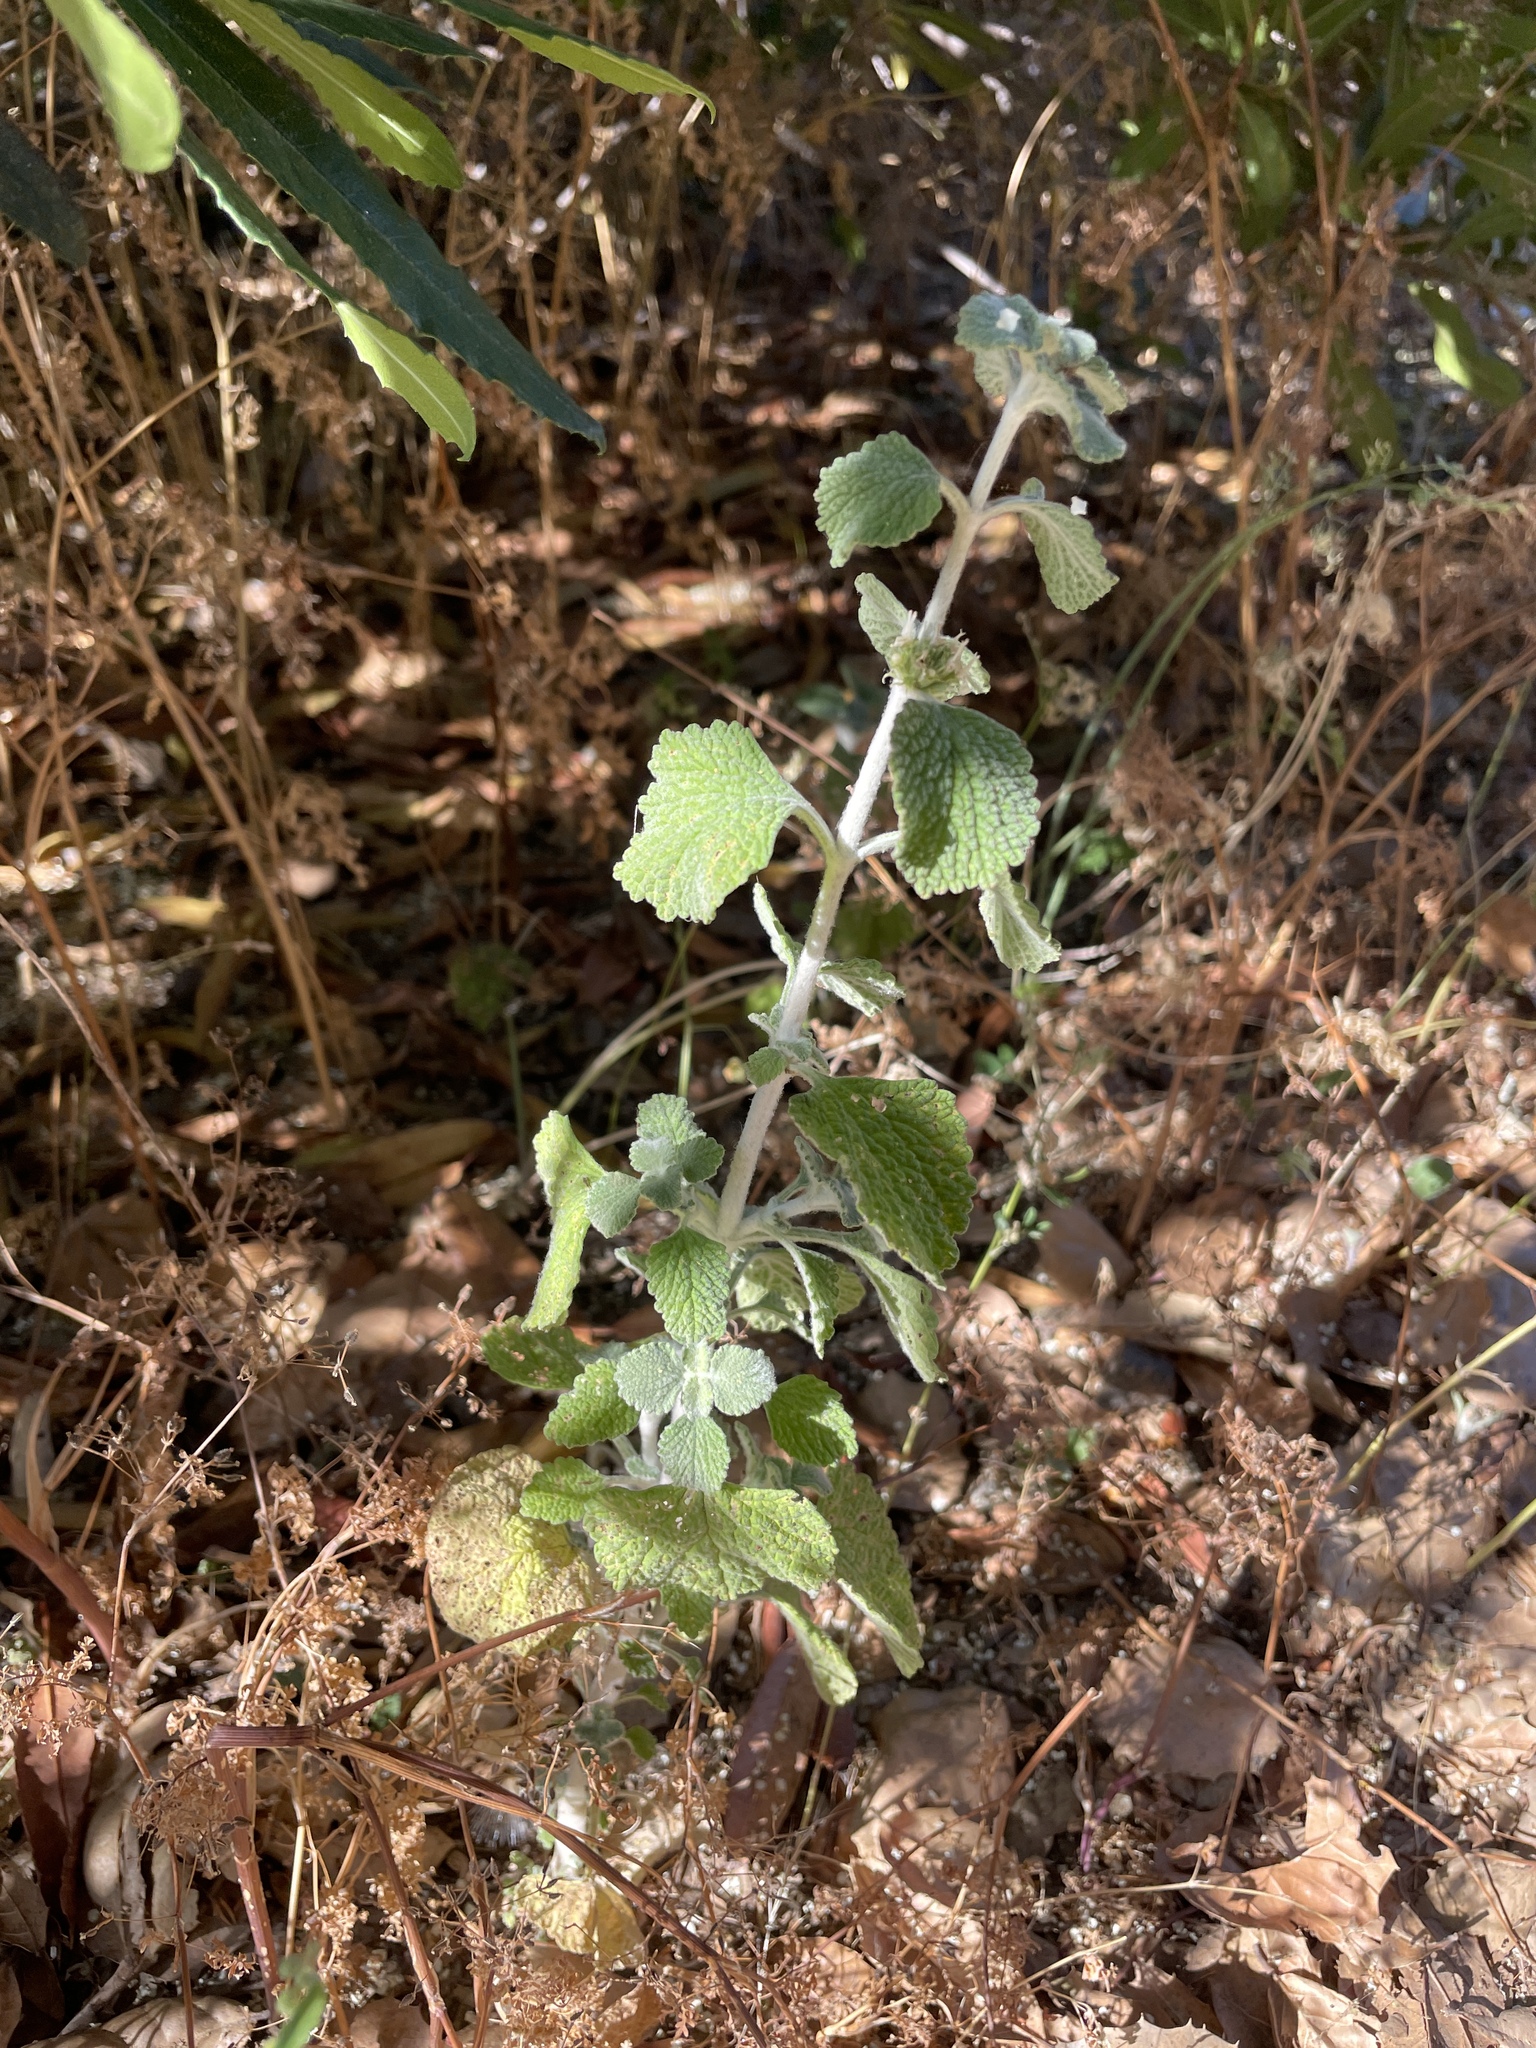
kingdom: Plantae
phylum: Tracheophyta
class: Magnoliopsida
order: Lamiales
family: Lamiaceae
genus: Marrubium
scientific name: Marrubium vulgare
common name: Horehound
